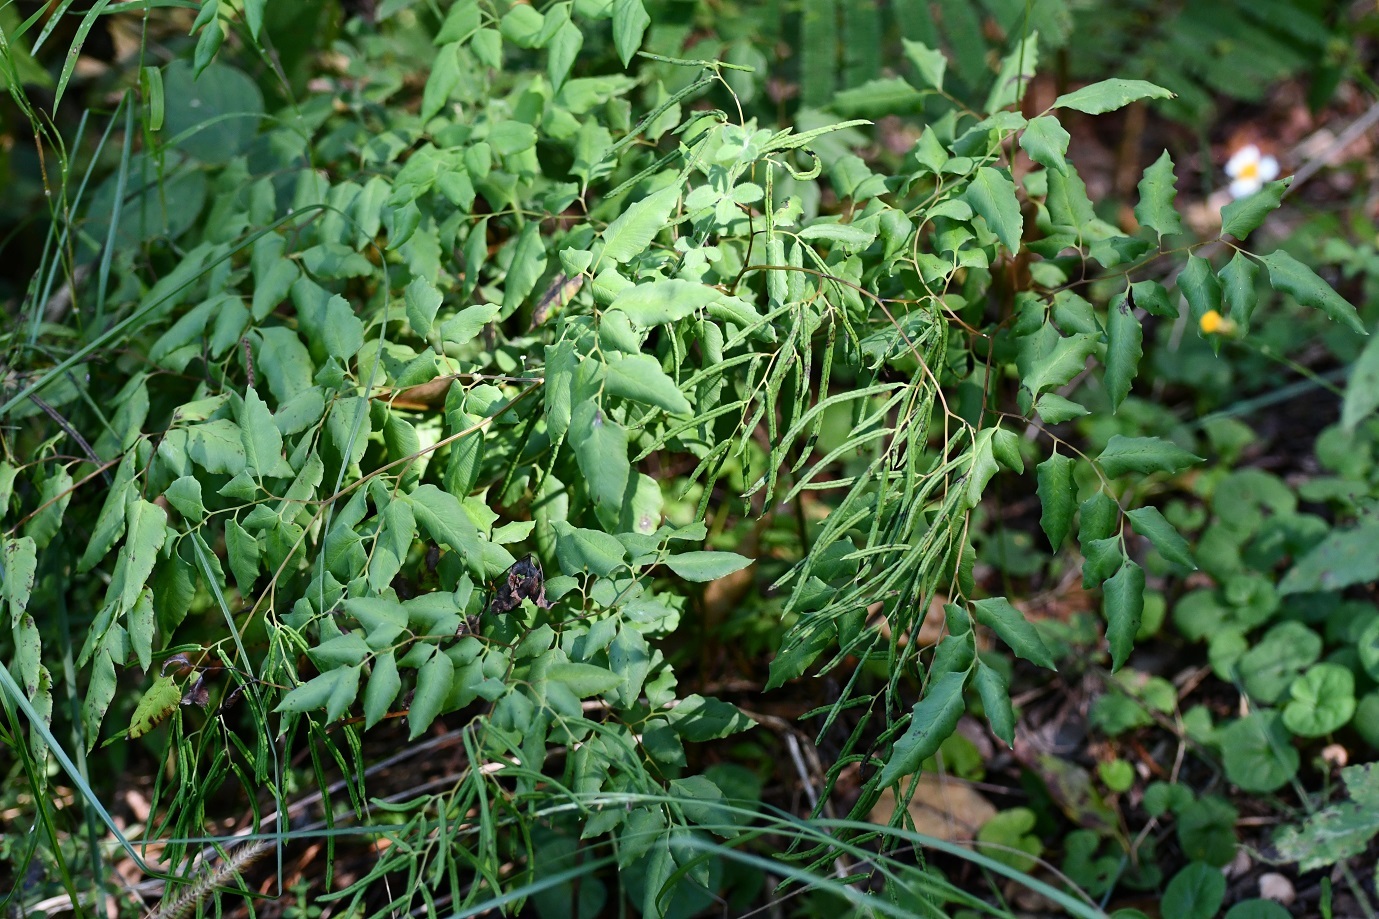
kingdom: Plantae
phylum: Tracheophyta
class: Polypodiopsida
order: Polypodiales
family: Pteridaceae
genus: Llavea
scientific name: Llavea cordifolia
